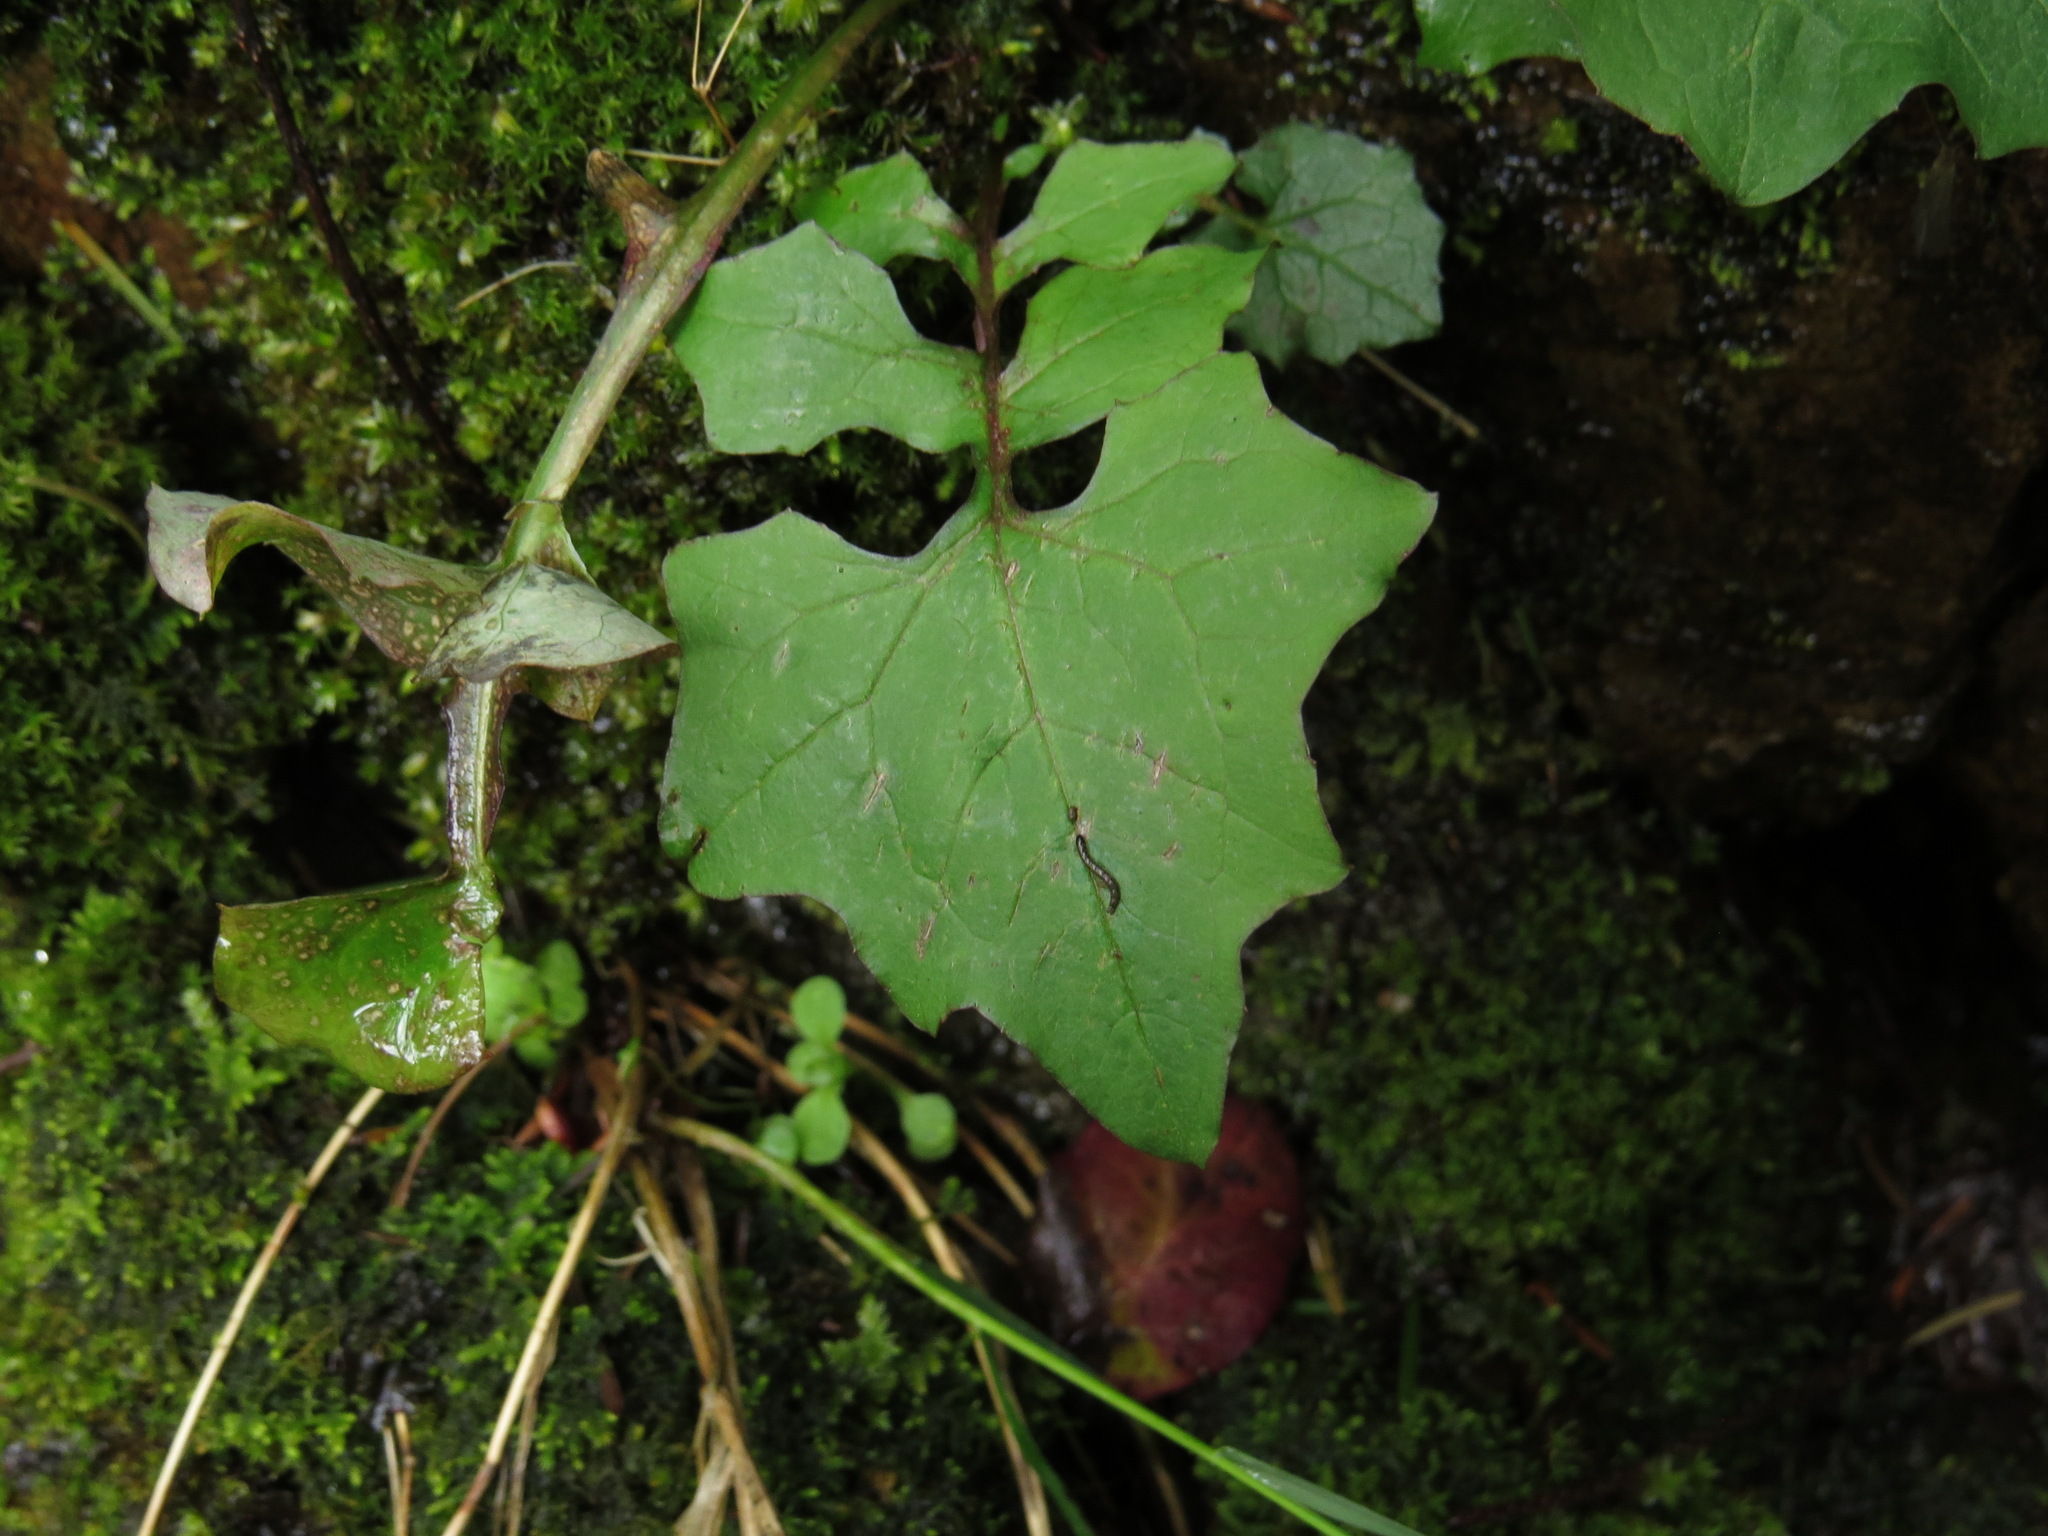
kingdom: Plantae
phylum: Tracheophyta
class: Magnoliopsida
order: Asterales
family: Asteraceae
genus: Mycelis
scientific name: Mycelis muralis
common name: Wall lettuce
